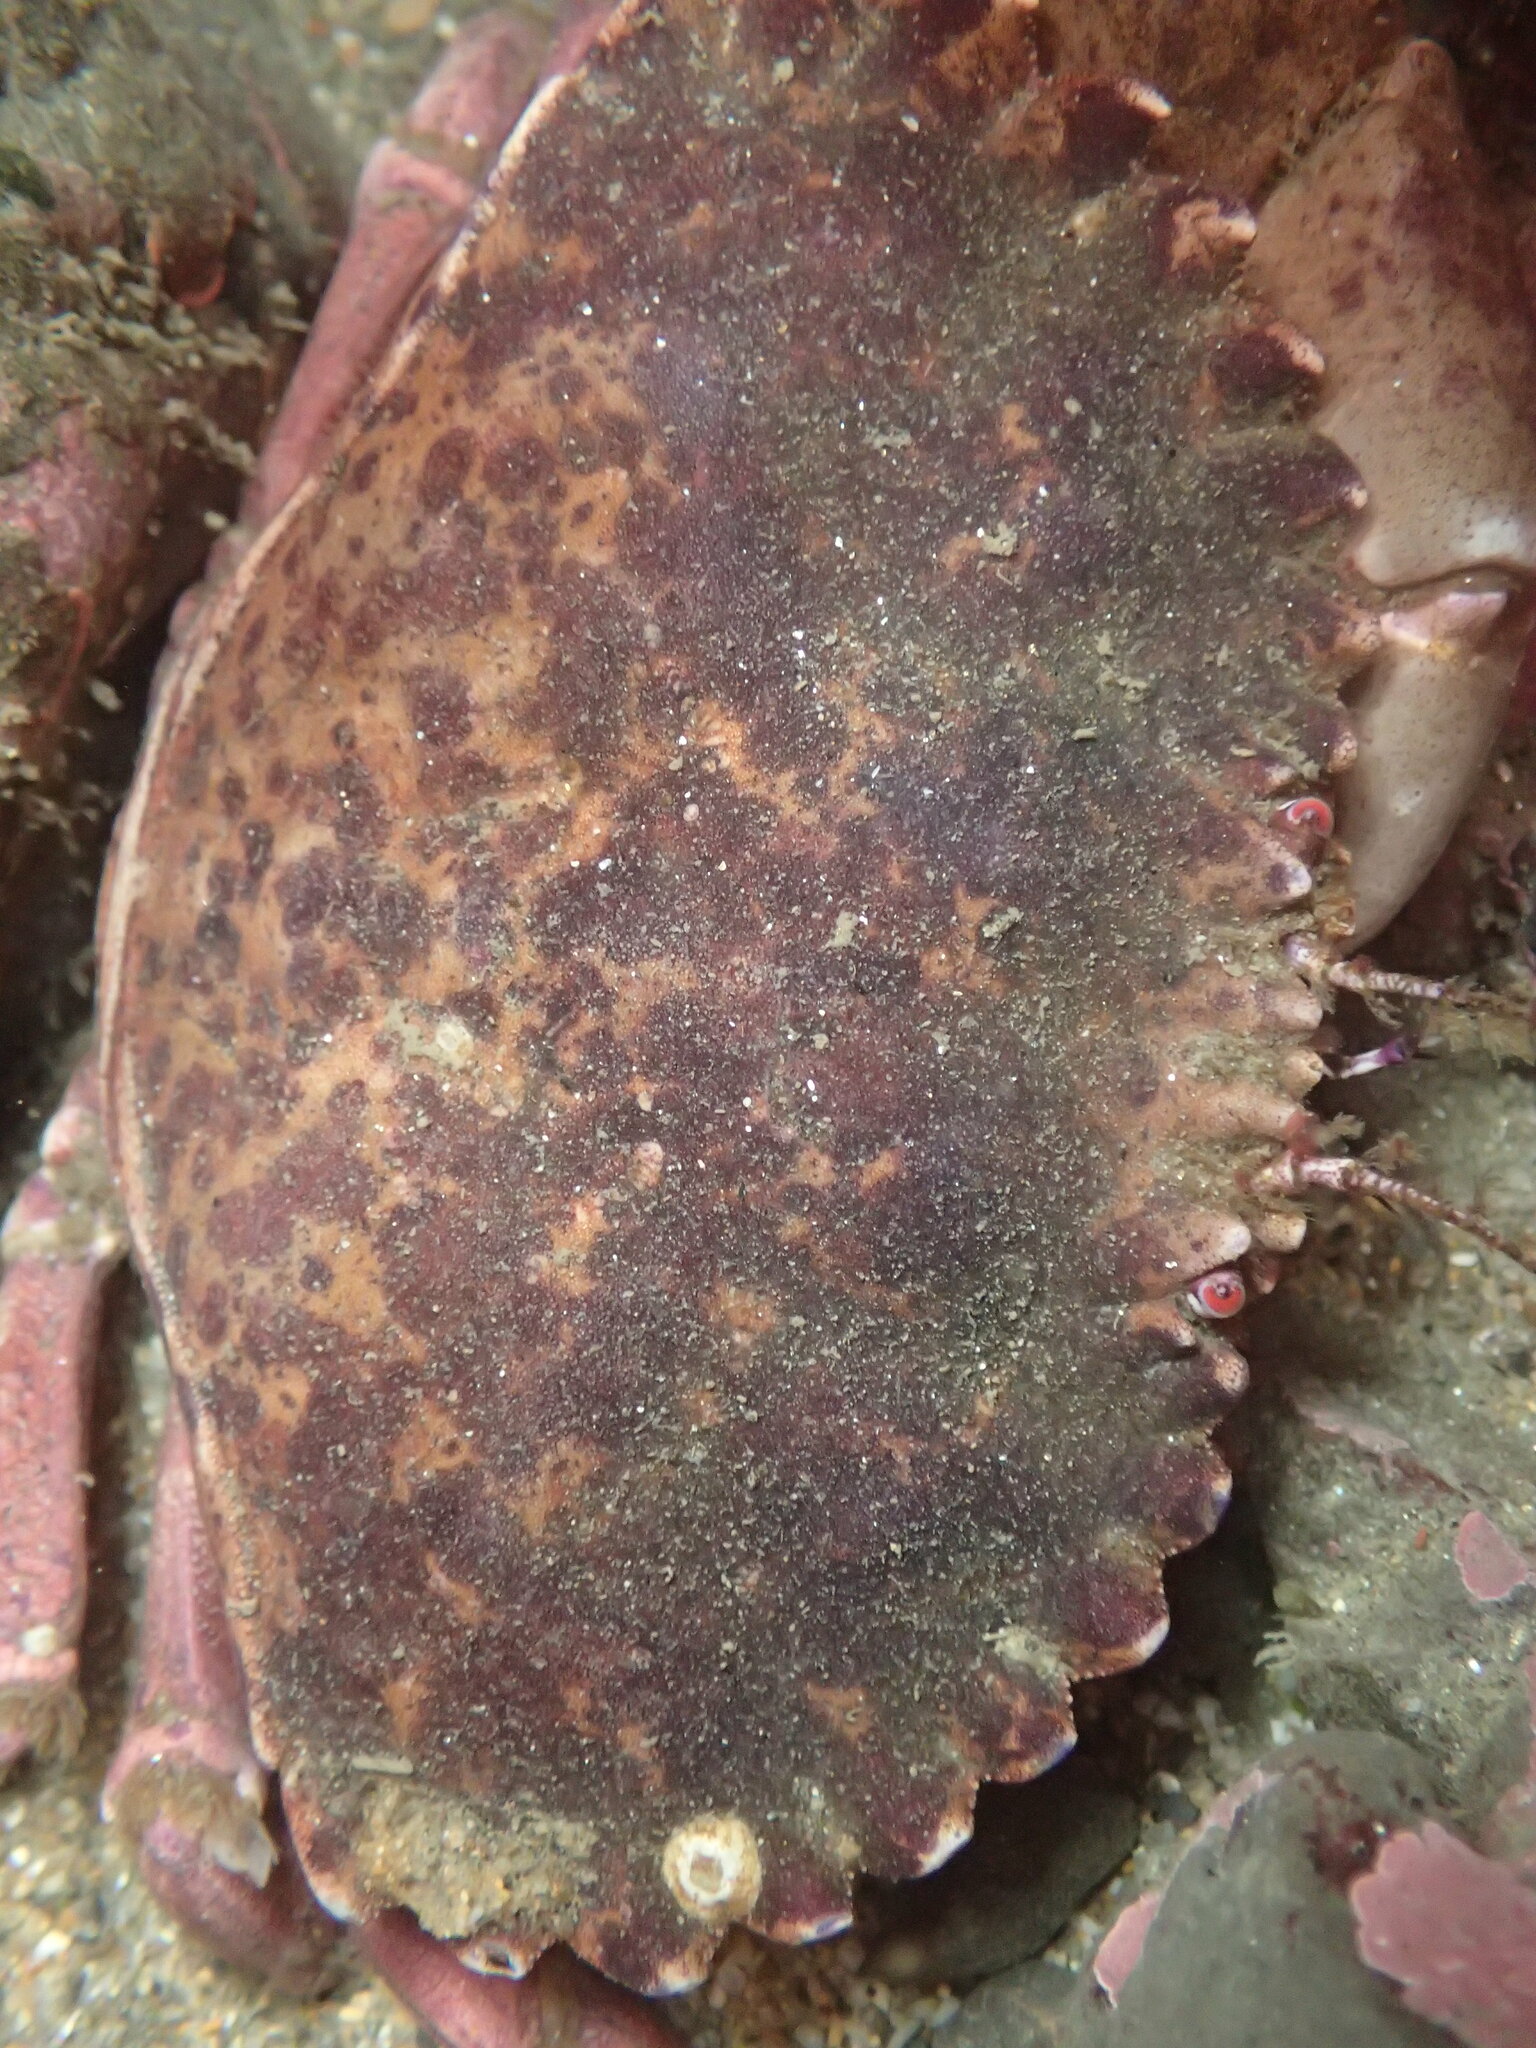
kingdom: Animalia
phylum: Arthropoda
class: Malacostraca
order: Decapoda
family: Cancridae
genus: Romaleon
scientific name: Romaleon antennarium
